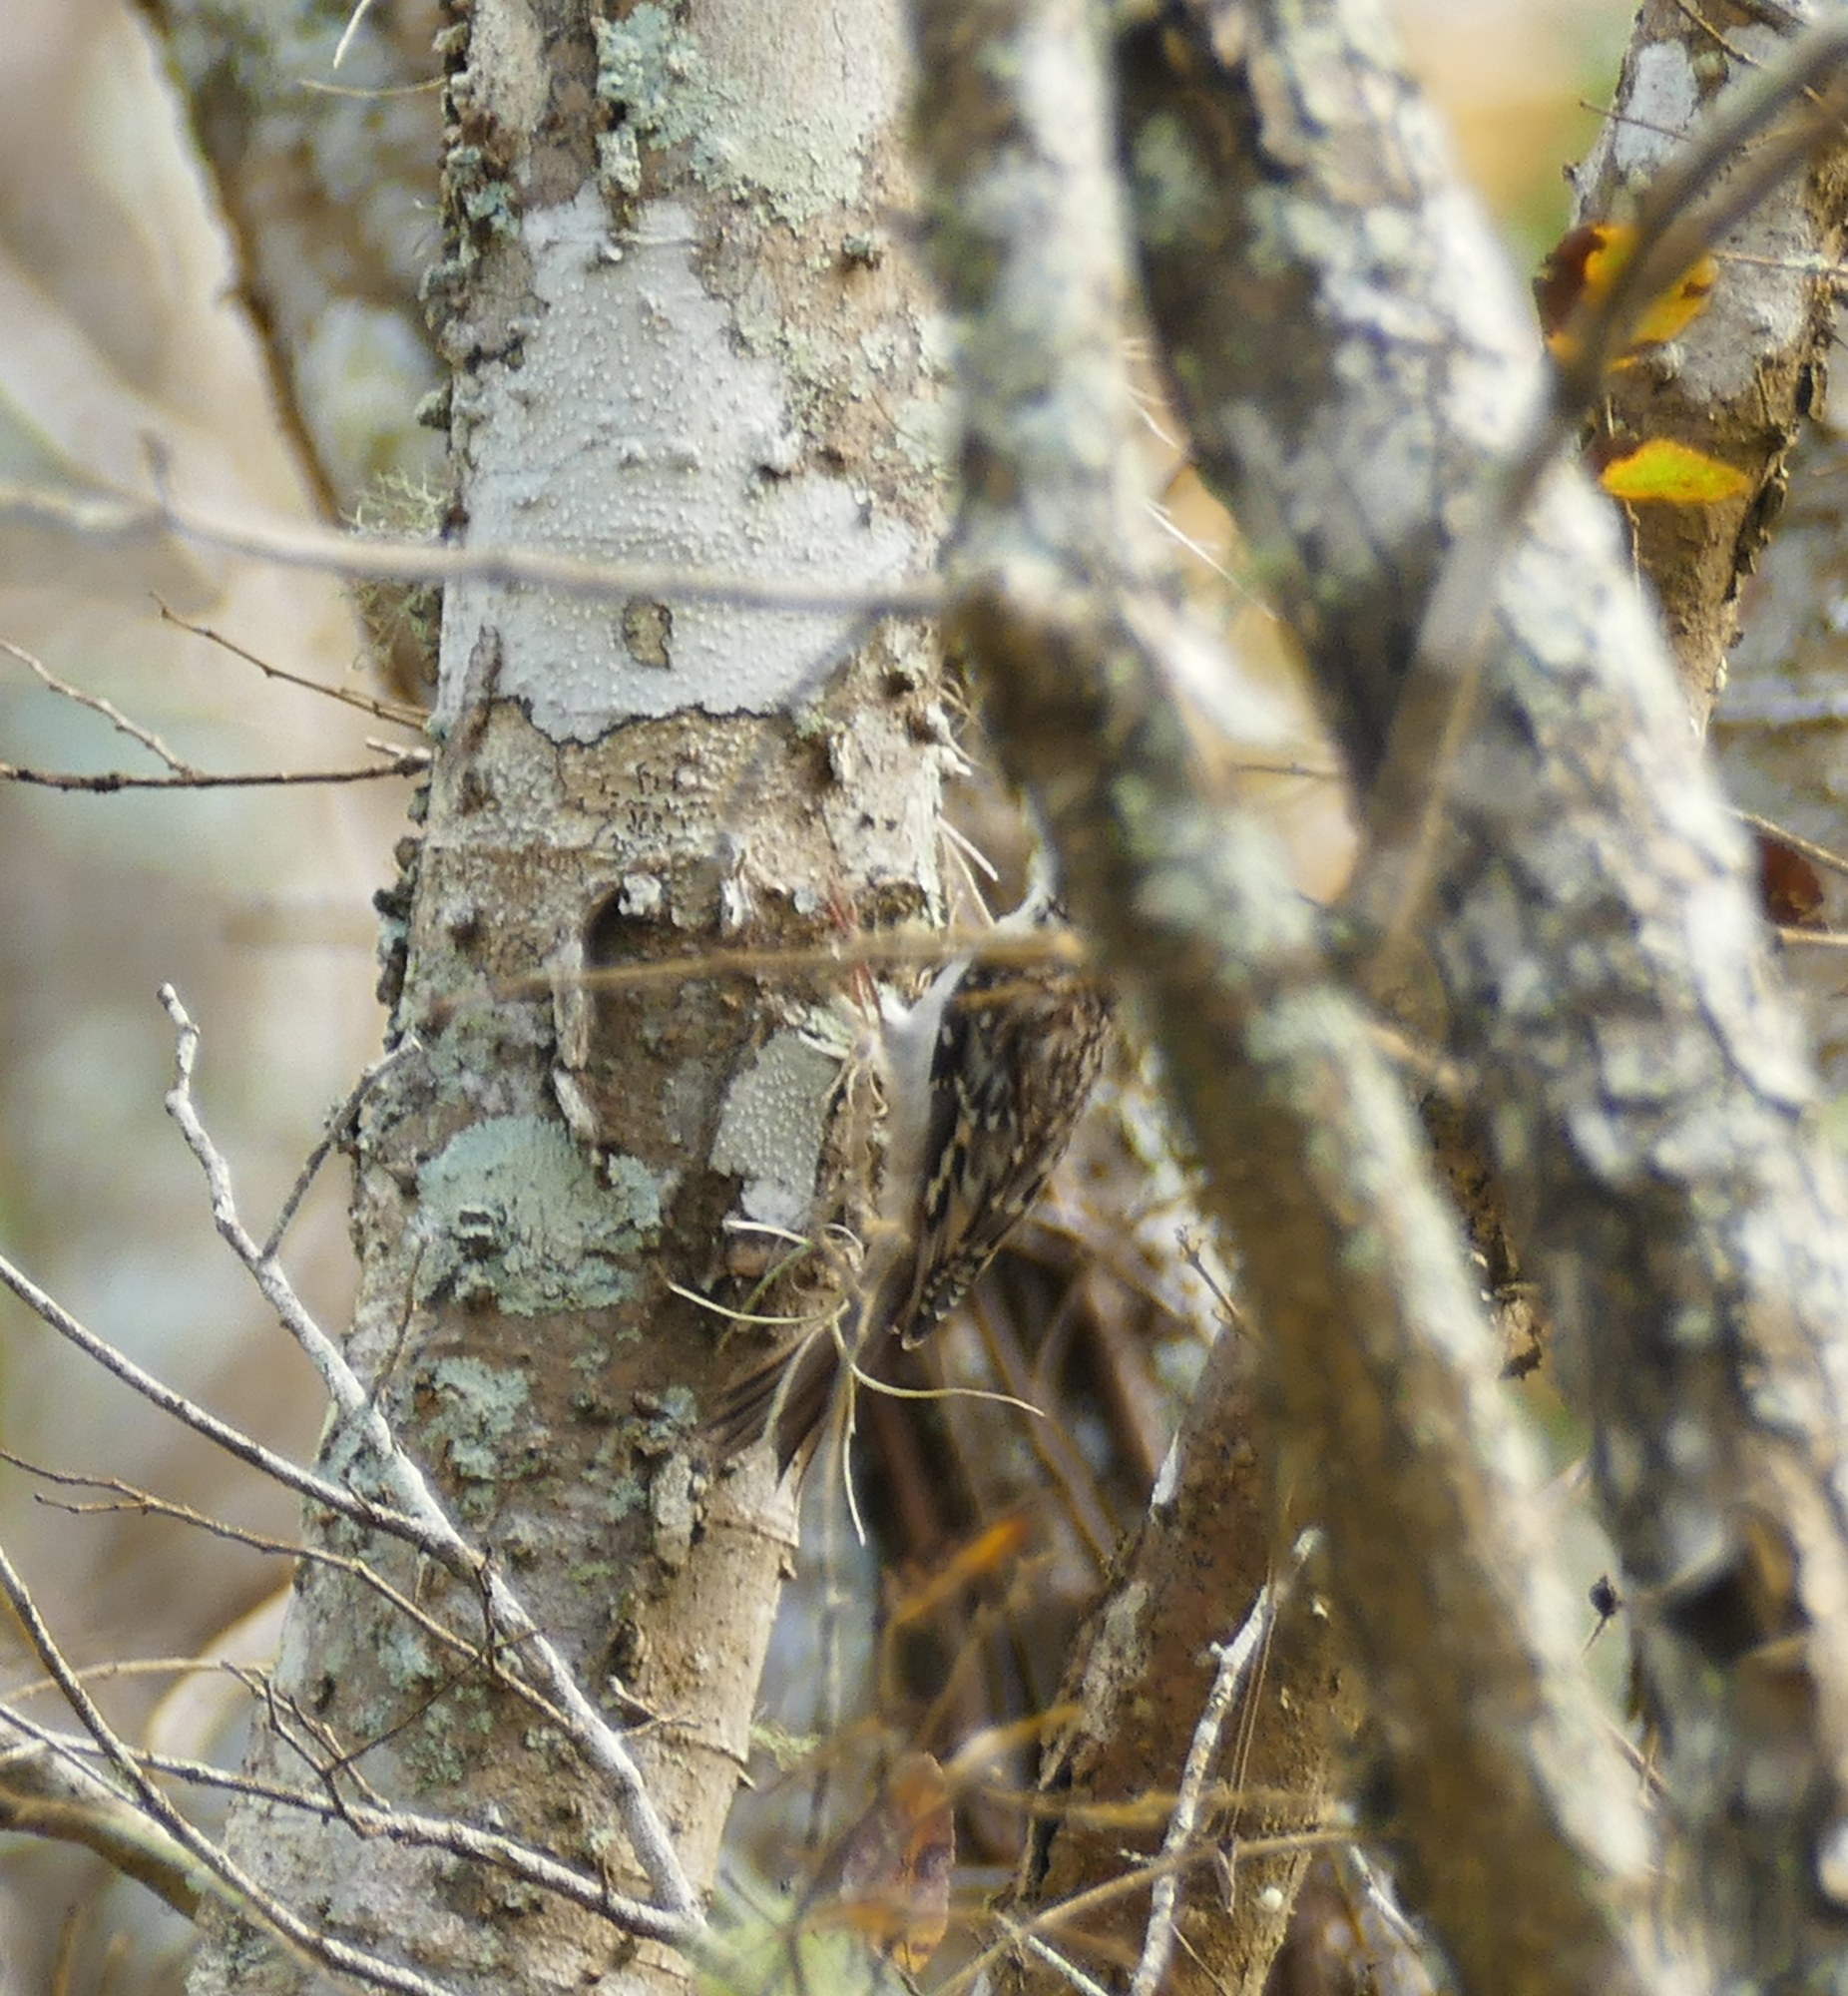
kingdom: Animalia
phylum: Chordata
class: Aves
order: Passeriformes
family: Certhiidae
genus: Certhia
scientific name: Certhia americana
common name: Brown creeper
